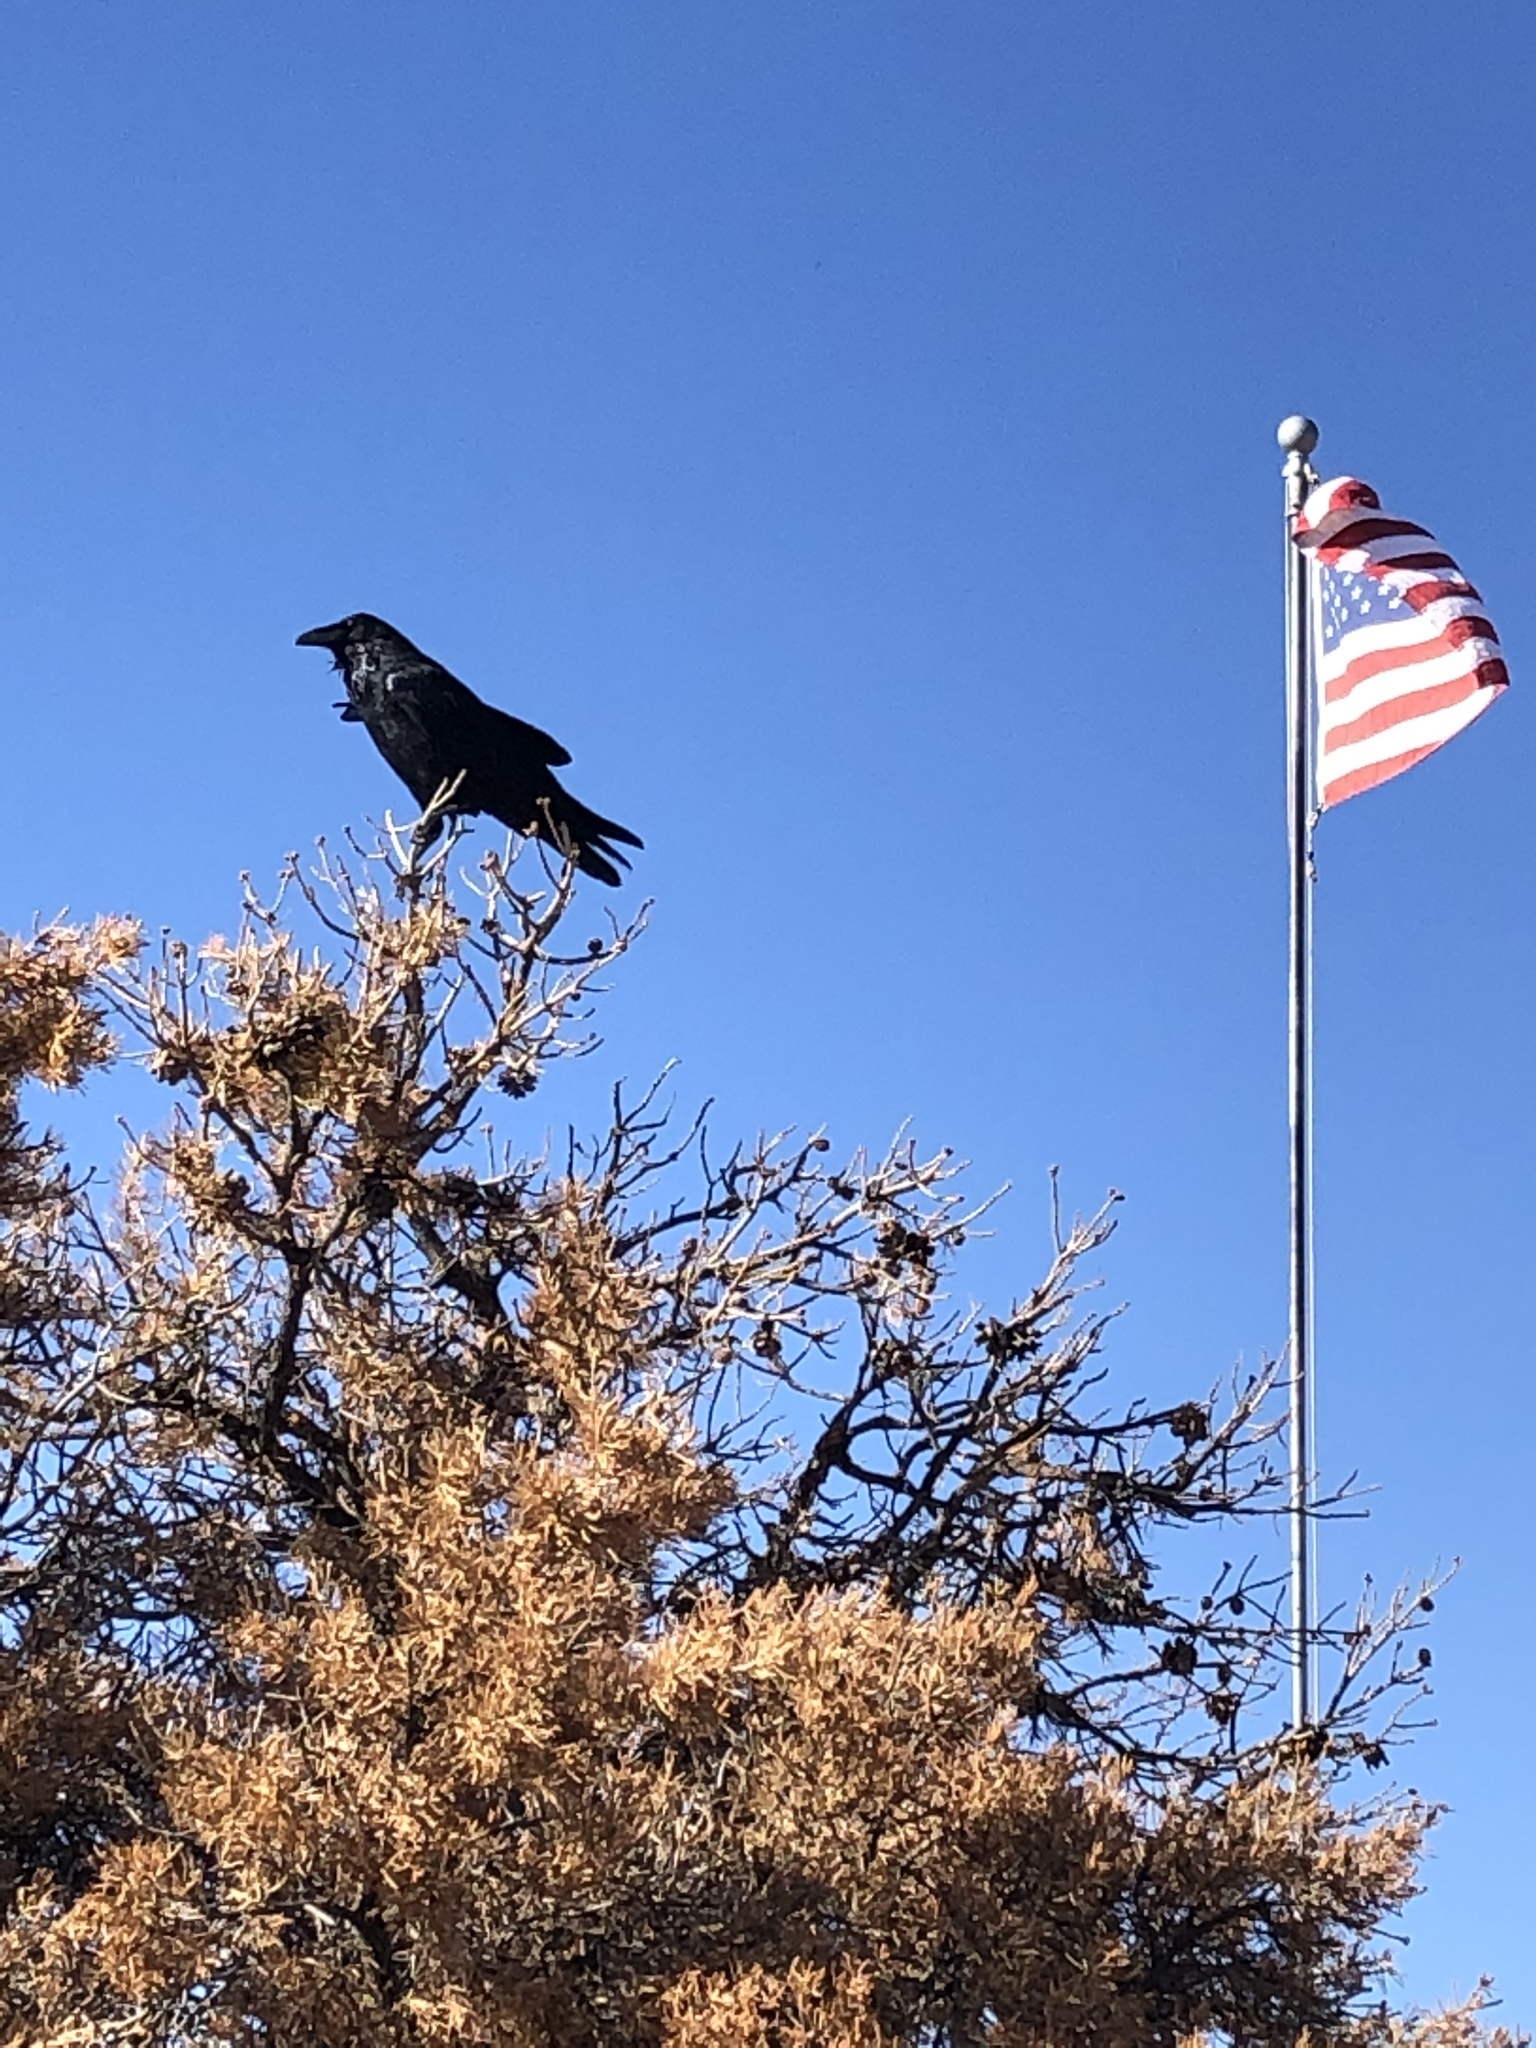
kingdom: Animalia
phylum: Chordata
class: Aves
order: Passeriformes
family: Corvidae
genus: Corvus
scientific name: Corvus corax
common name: Common raven
